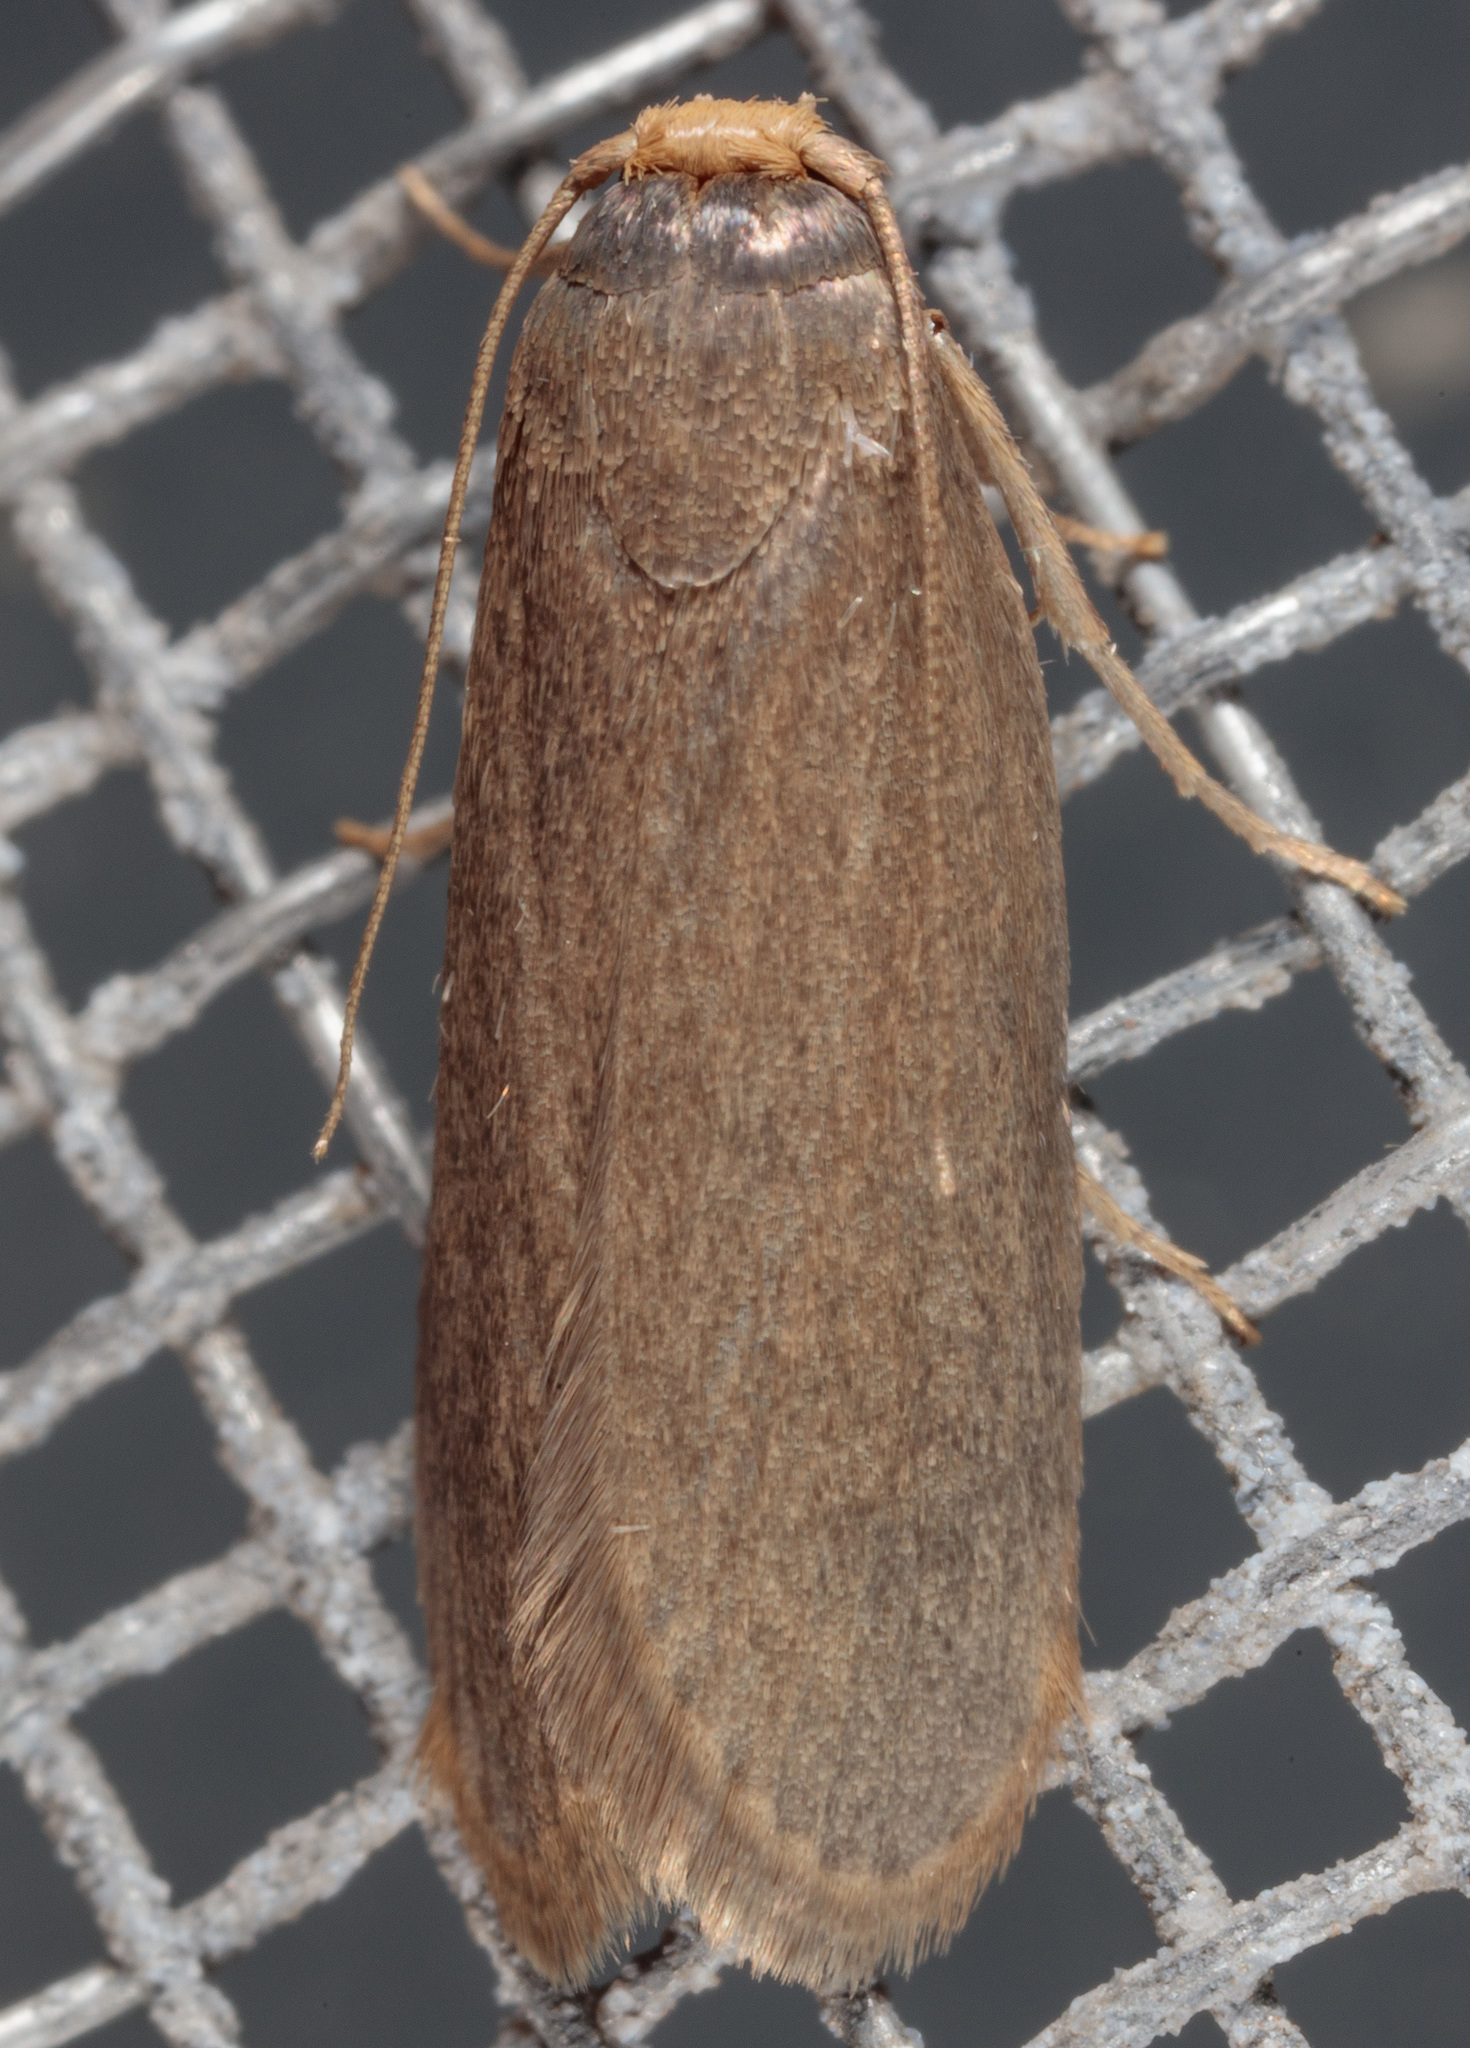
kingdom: Animalia
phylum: Arthropoda
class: Insecta
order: Lepidoptera
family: Pyralidae
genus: Achroia
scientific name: Achroia grisella
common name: Lesser wax moth
